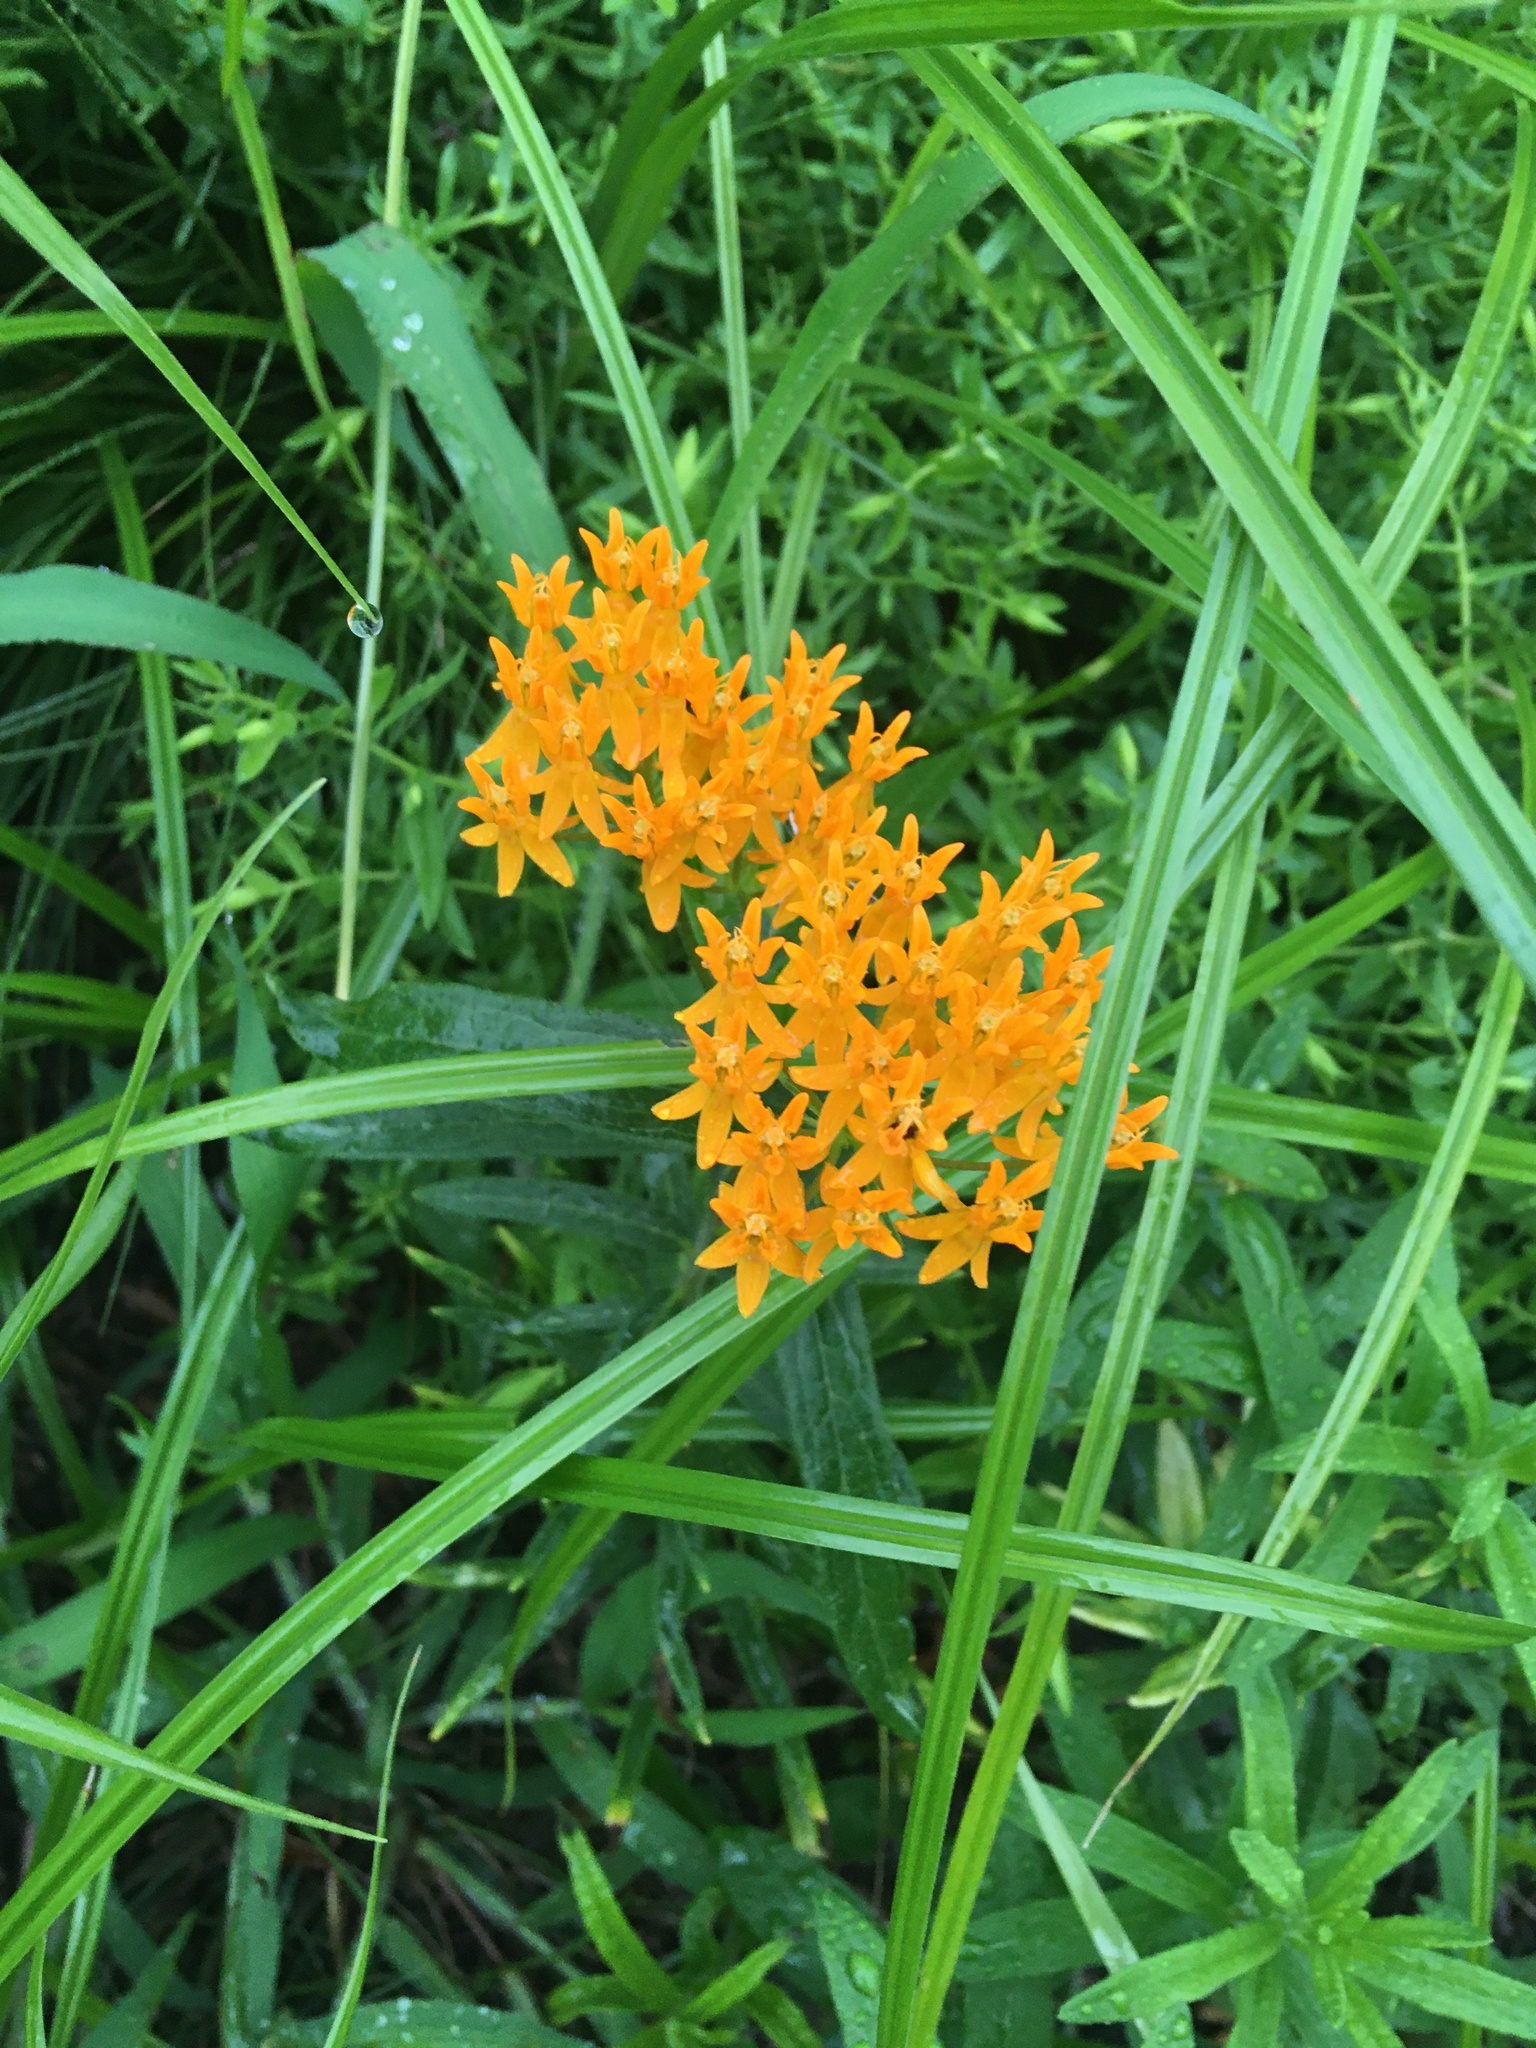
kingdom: Plantae
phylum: Tracheophyta
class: Magnoliopsida
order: Gentianales
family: Apocynaceae
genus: Asclepias
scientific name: Asclepias tuberosa
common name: Butterfly milkweed
